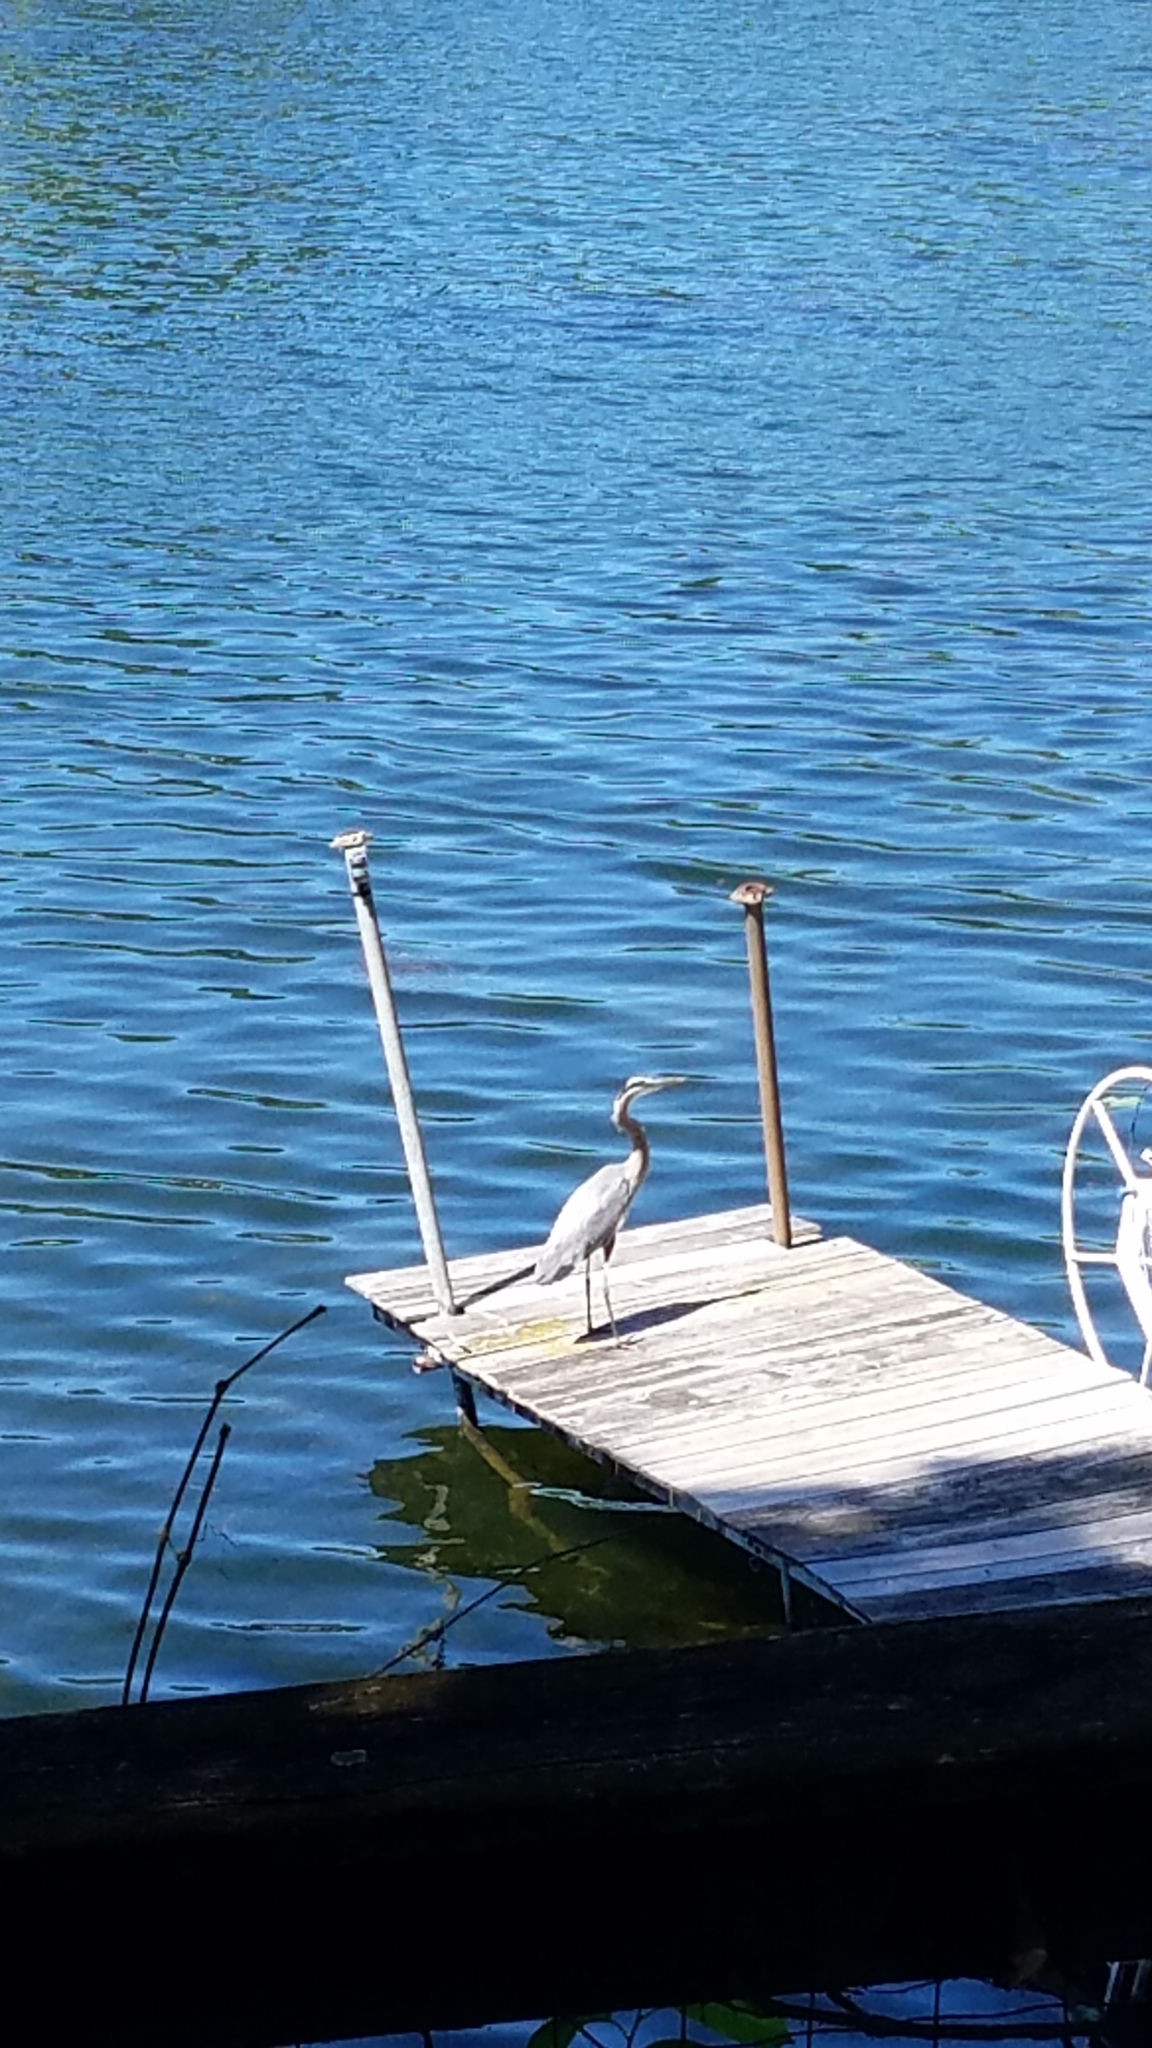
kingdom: Animalia
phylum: Chordata
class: Aves
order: Pelecaniformes
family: Ardeidae
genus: Ardea
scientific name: Ardea herodias
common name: Great blue heron
